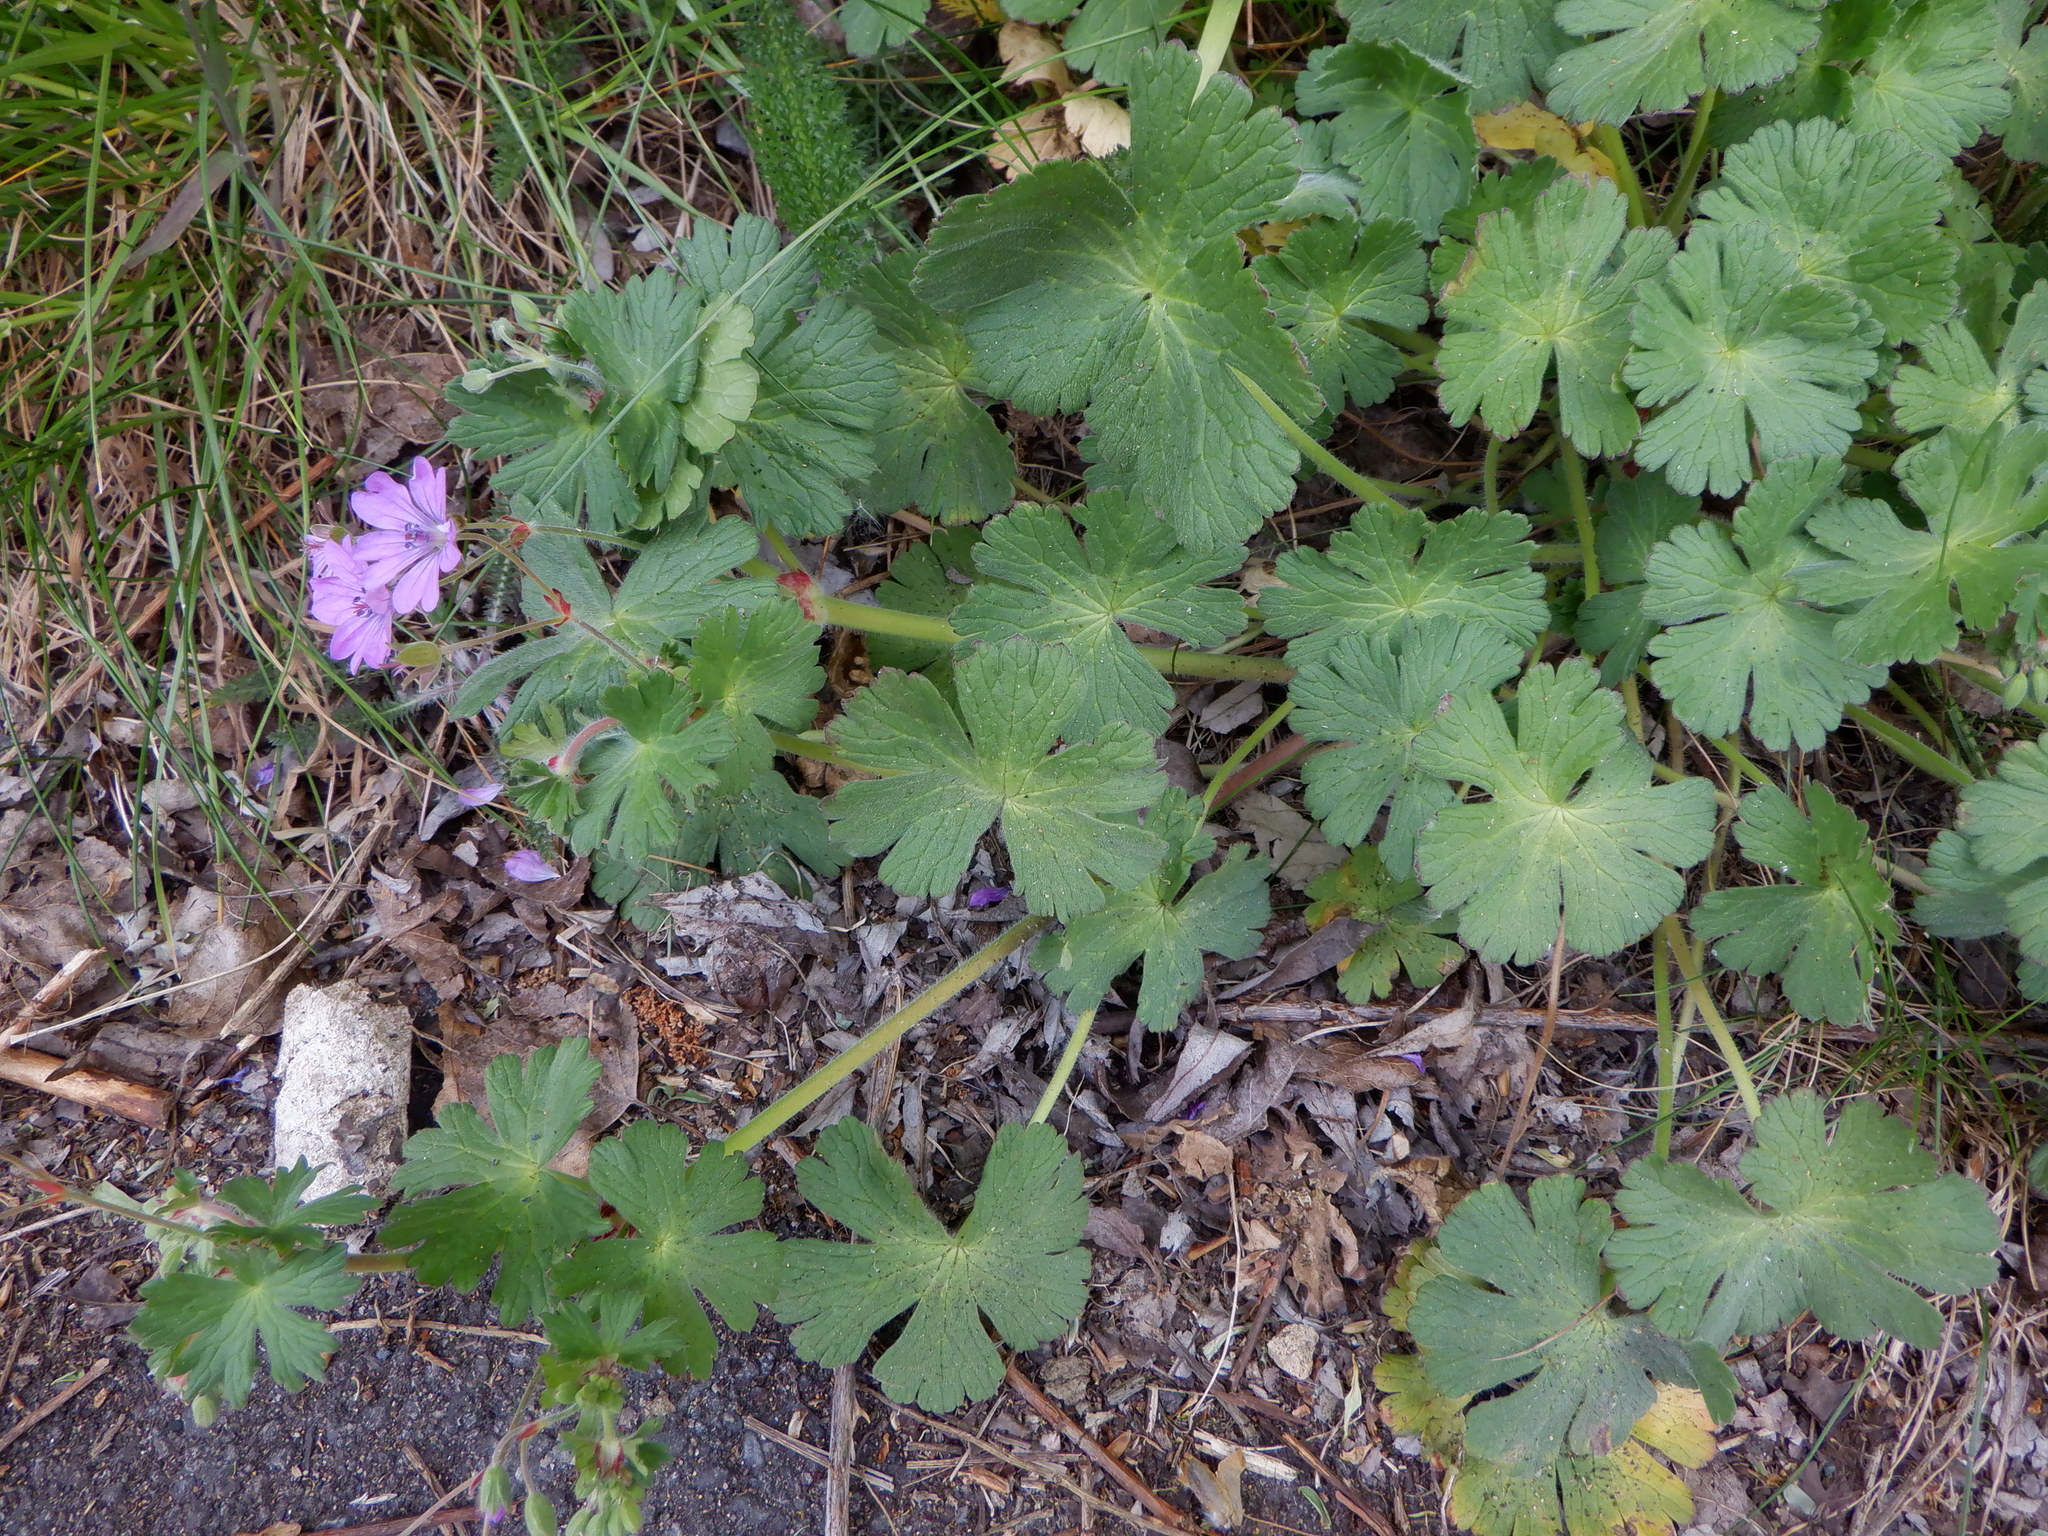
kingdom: Plantae
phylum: Tracheophyta
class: Magnoliopsida
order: Geraniales
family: Geraniaceae
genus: Geranium
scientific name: Geranium pyrenaicum
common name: Hedgerow crane's-bill
